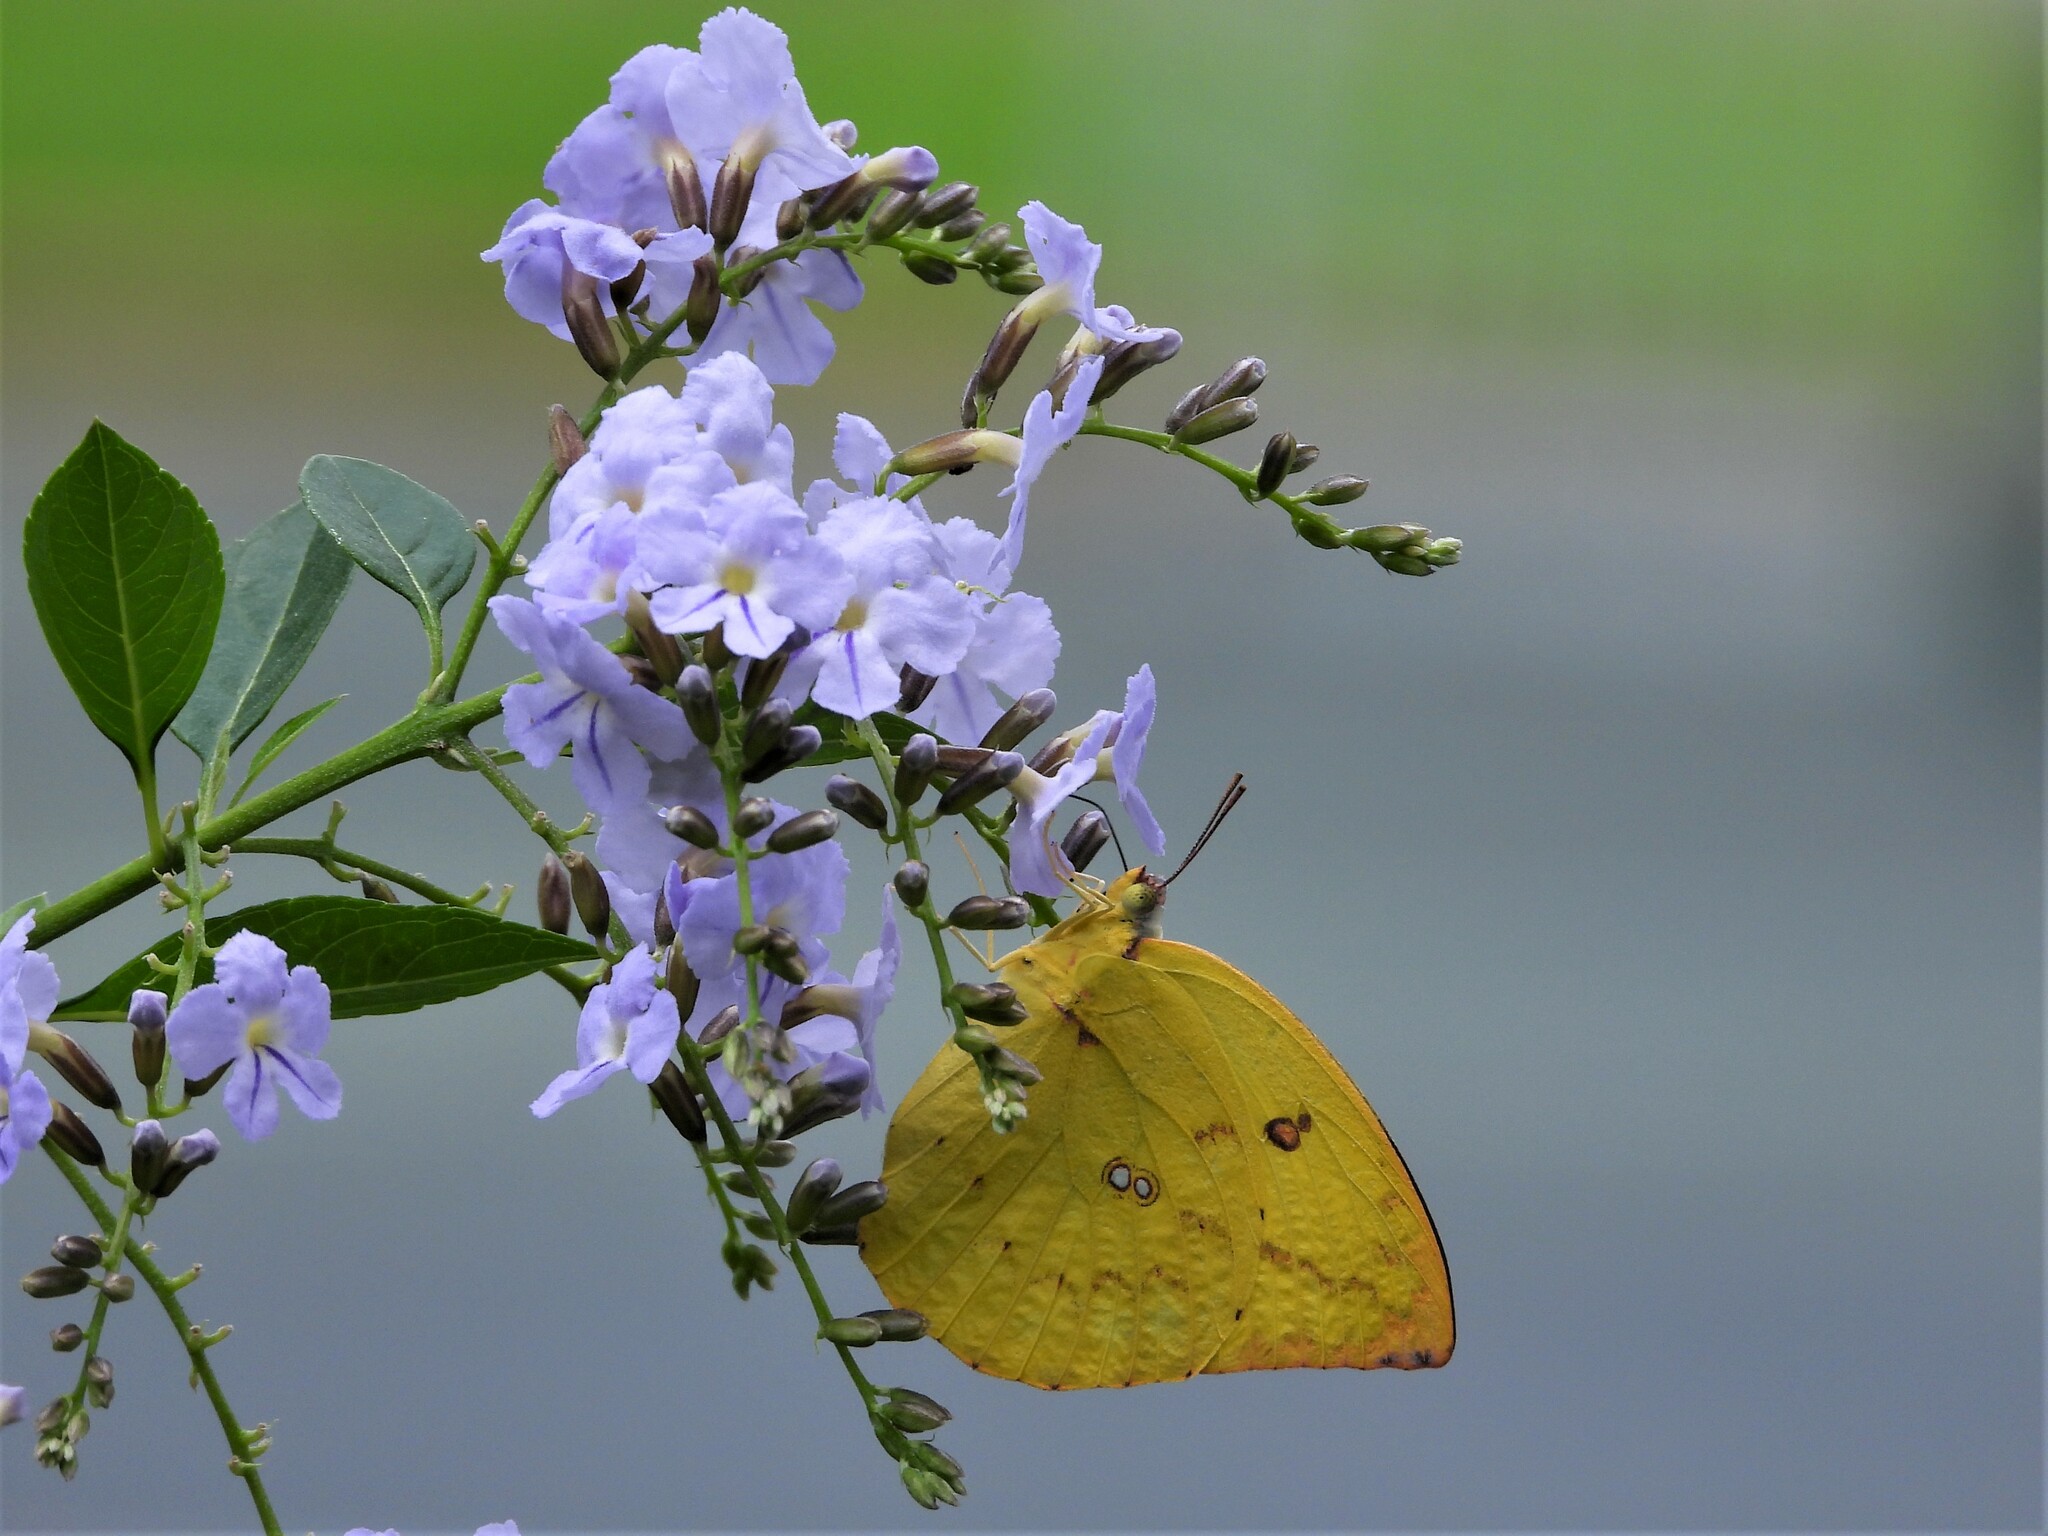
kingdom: Animalia
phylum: Arthropoda
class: Insecta
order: Lepidoptera
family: Pieridae
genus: Catopsilia
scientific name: Catopsilia pomona
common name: Common emigrant
